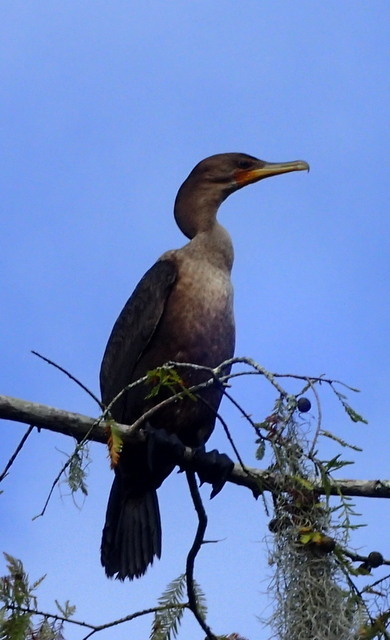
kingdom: Animalia
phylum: Chordata
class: Aves
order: Suliformes
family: Phalacrocoracidae
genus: Phalacrocorax
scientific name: Phalacrocorax auritus
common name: Double-crested cormorant
